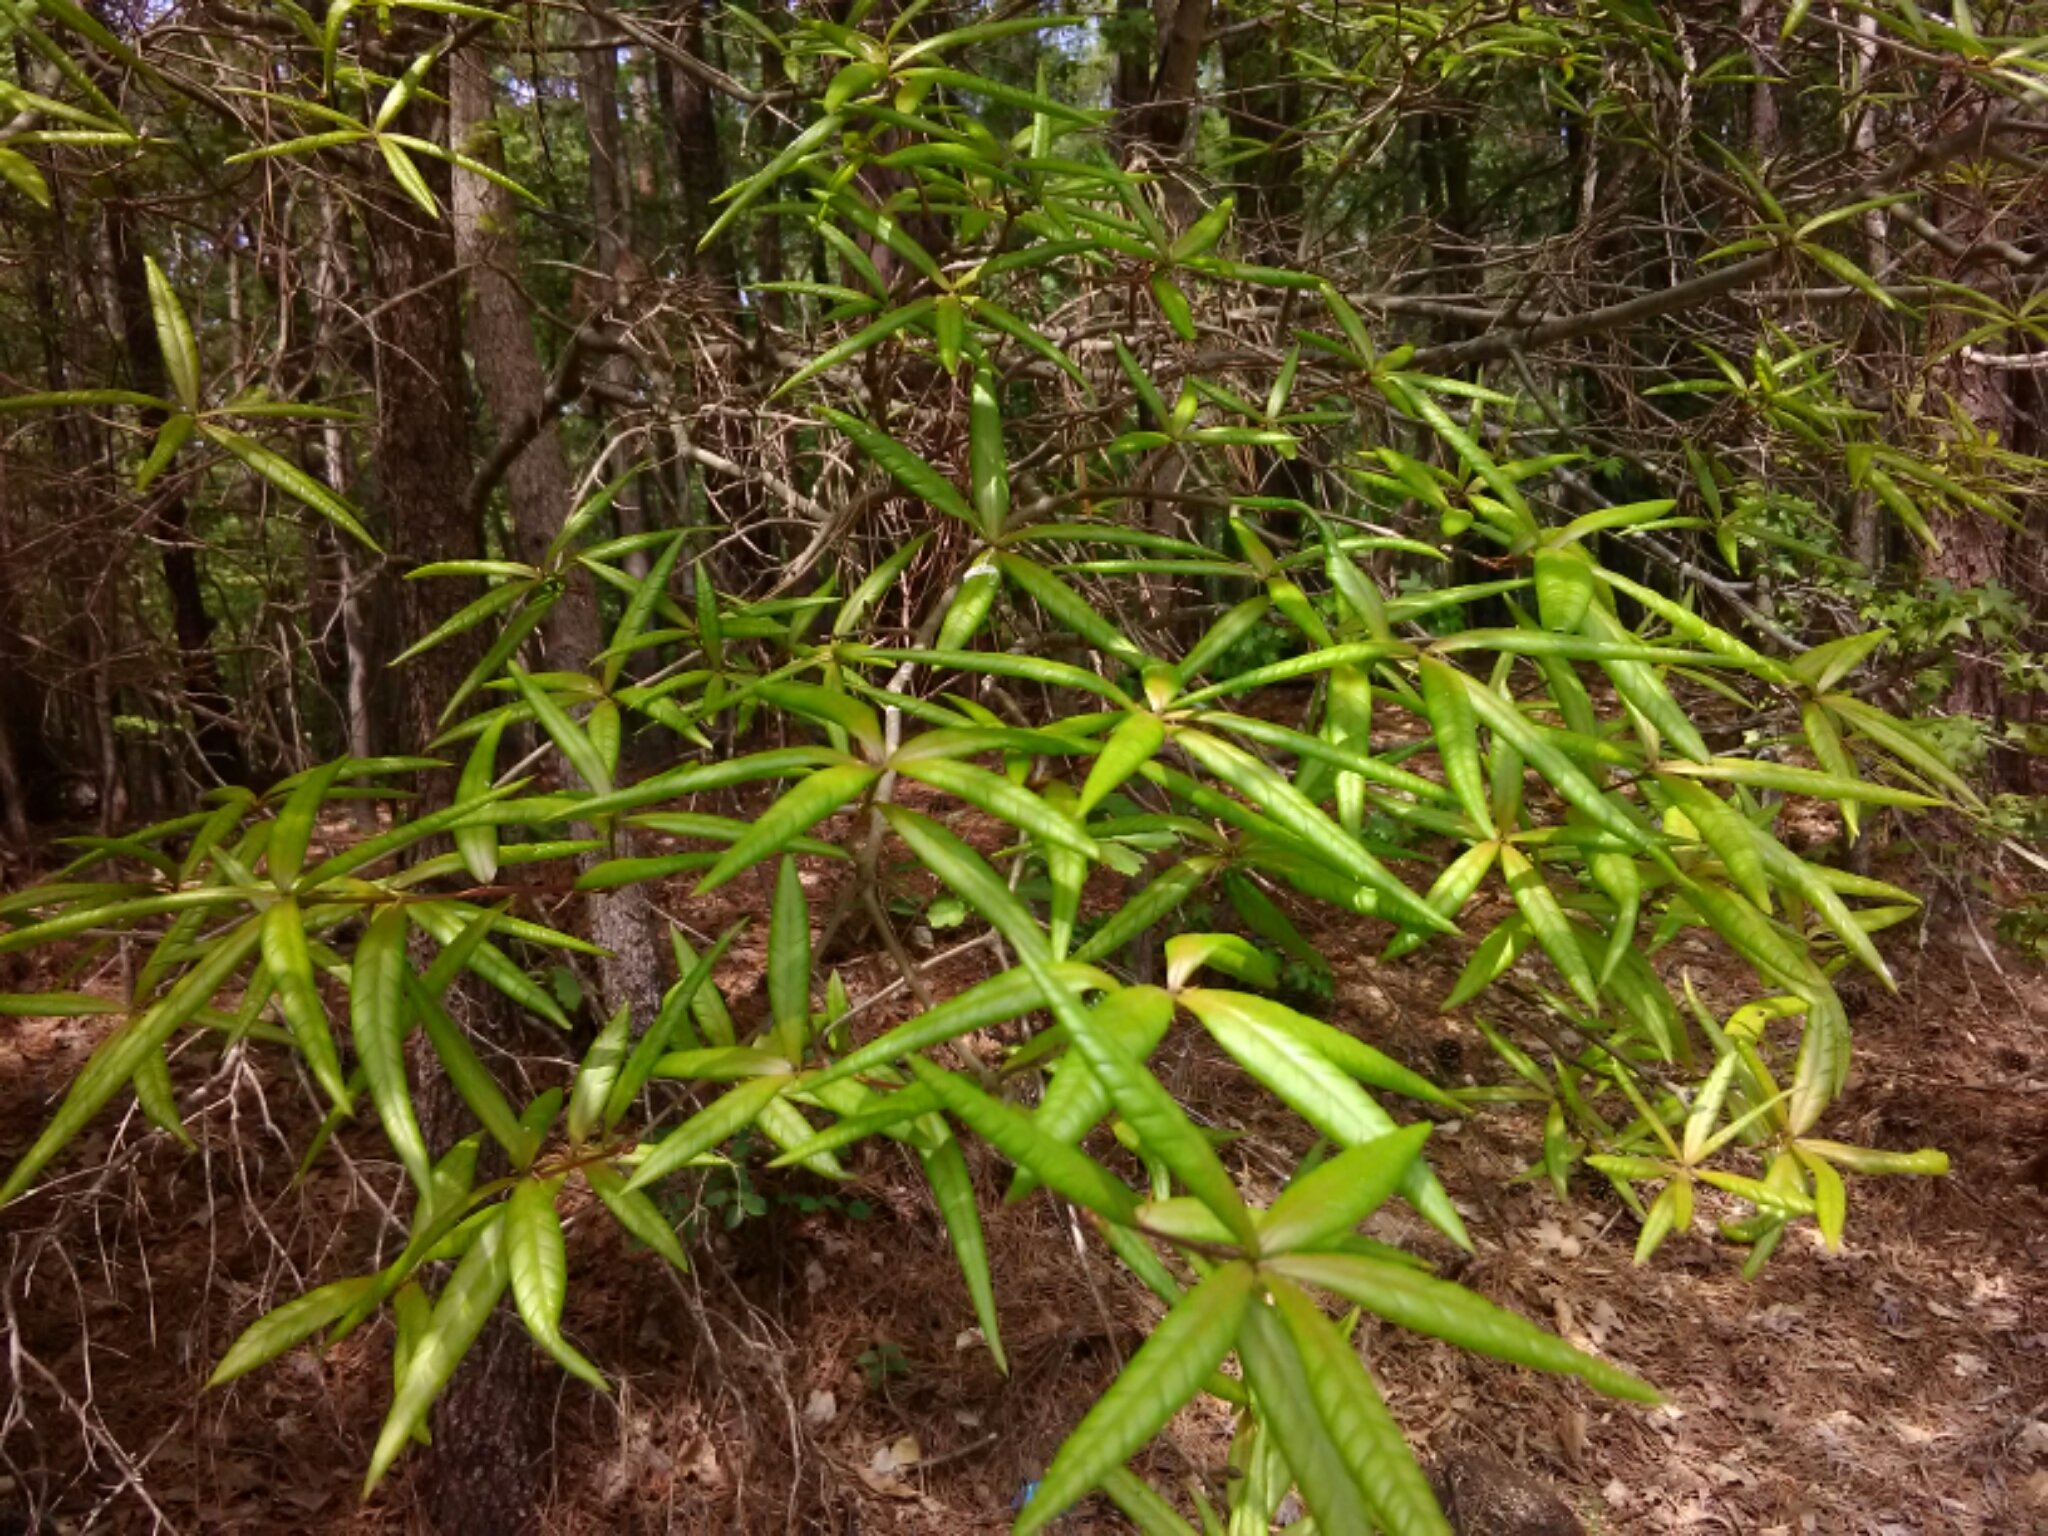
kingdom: Plantae
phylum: Tracheophyta
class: Magnoliopsida
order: Fagales
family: Fagaceae
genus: Quercus
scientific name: Quercus phellos
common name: Willow oak
